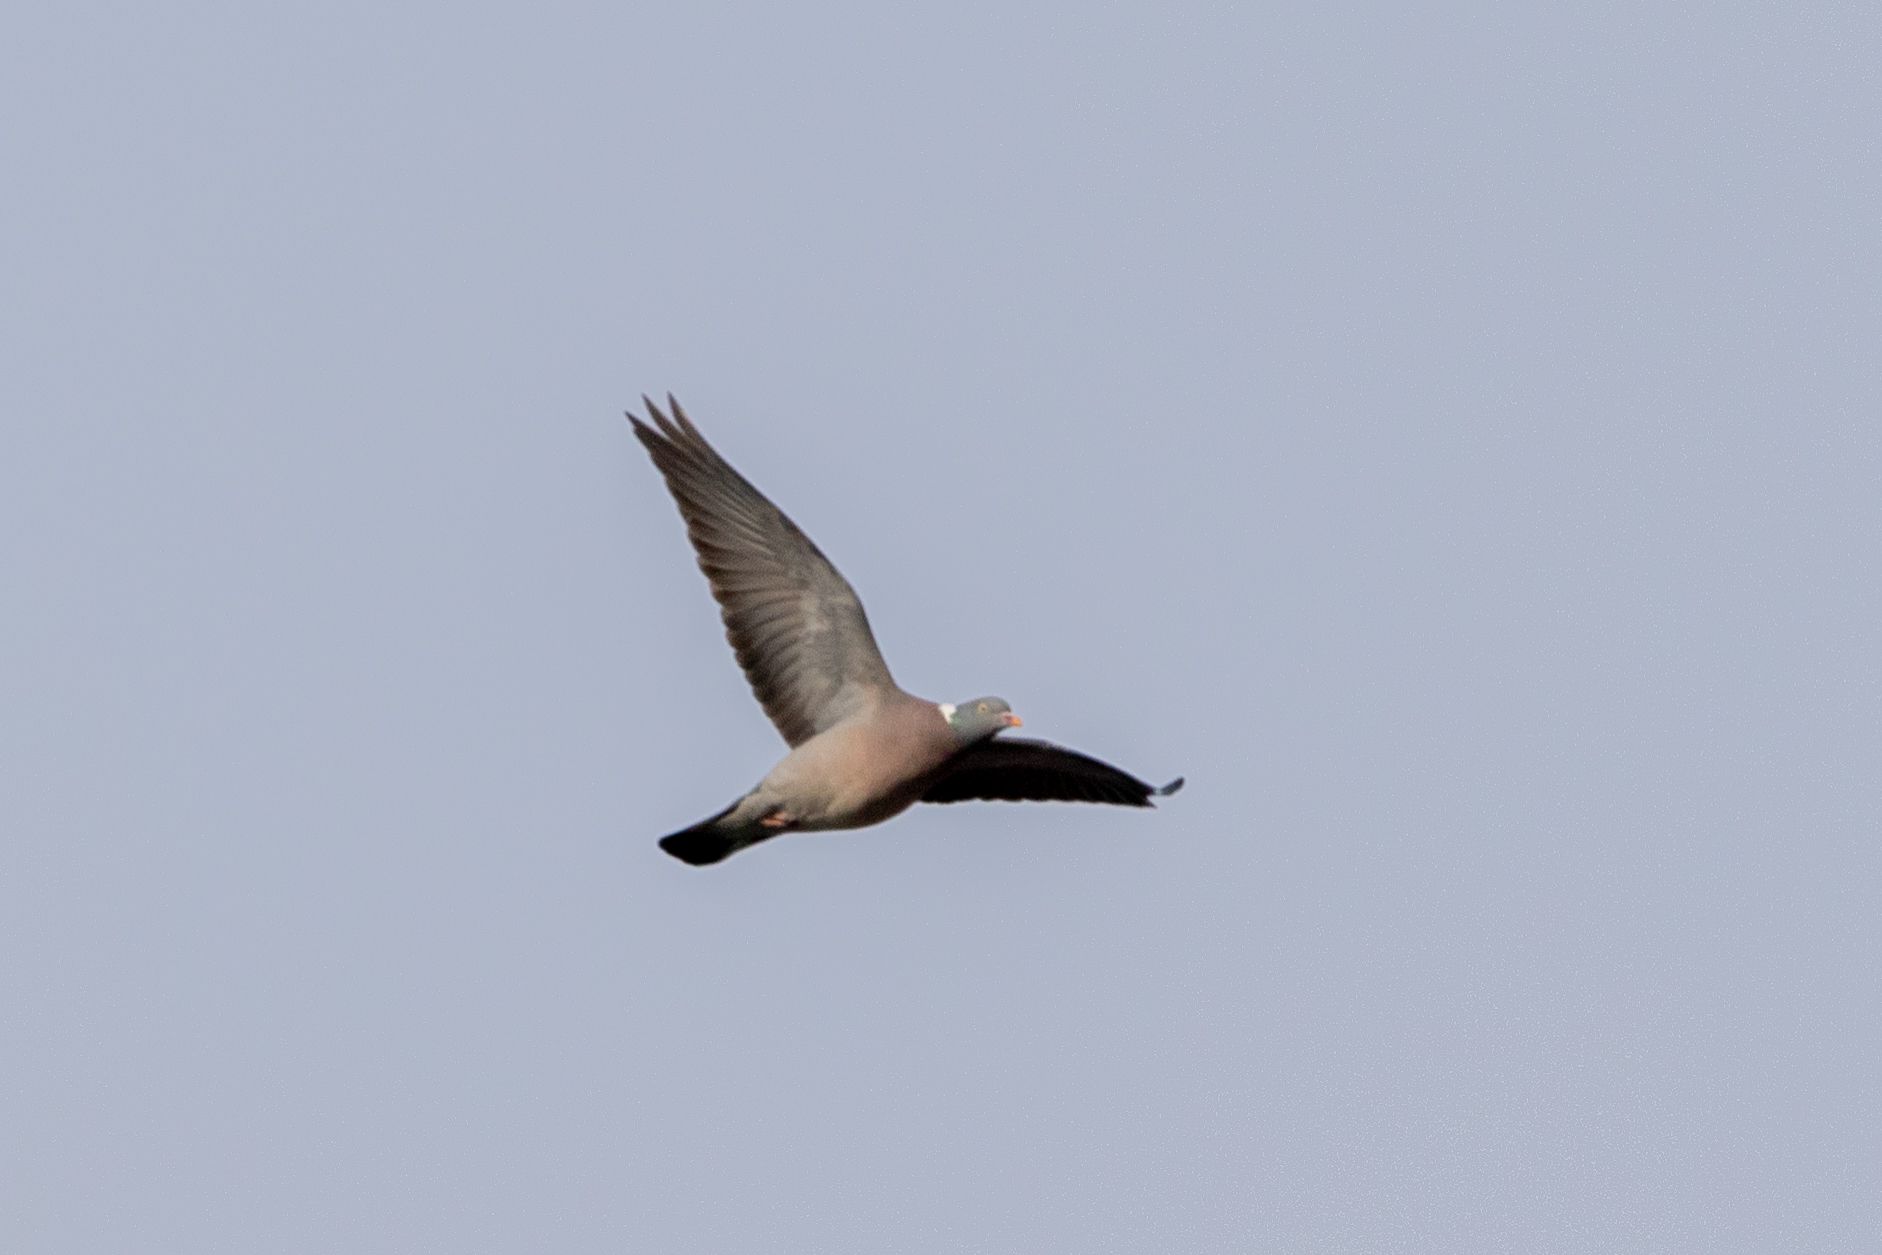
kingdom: Animalia
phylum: Chordata
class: Aves
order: Columbiformes
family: Columbidae
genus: Columba
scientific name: Columba palumbus
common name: Common wood pigeon
